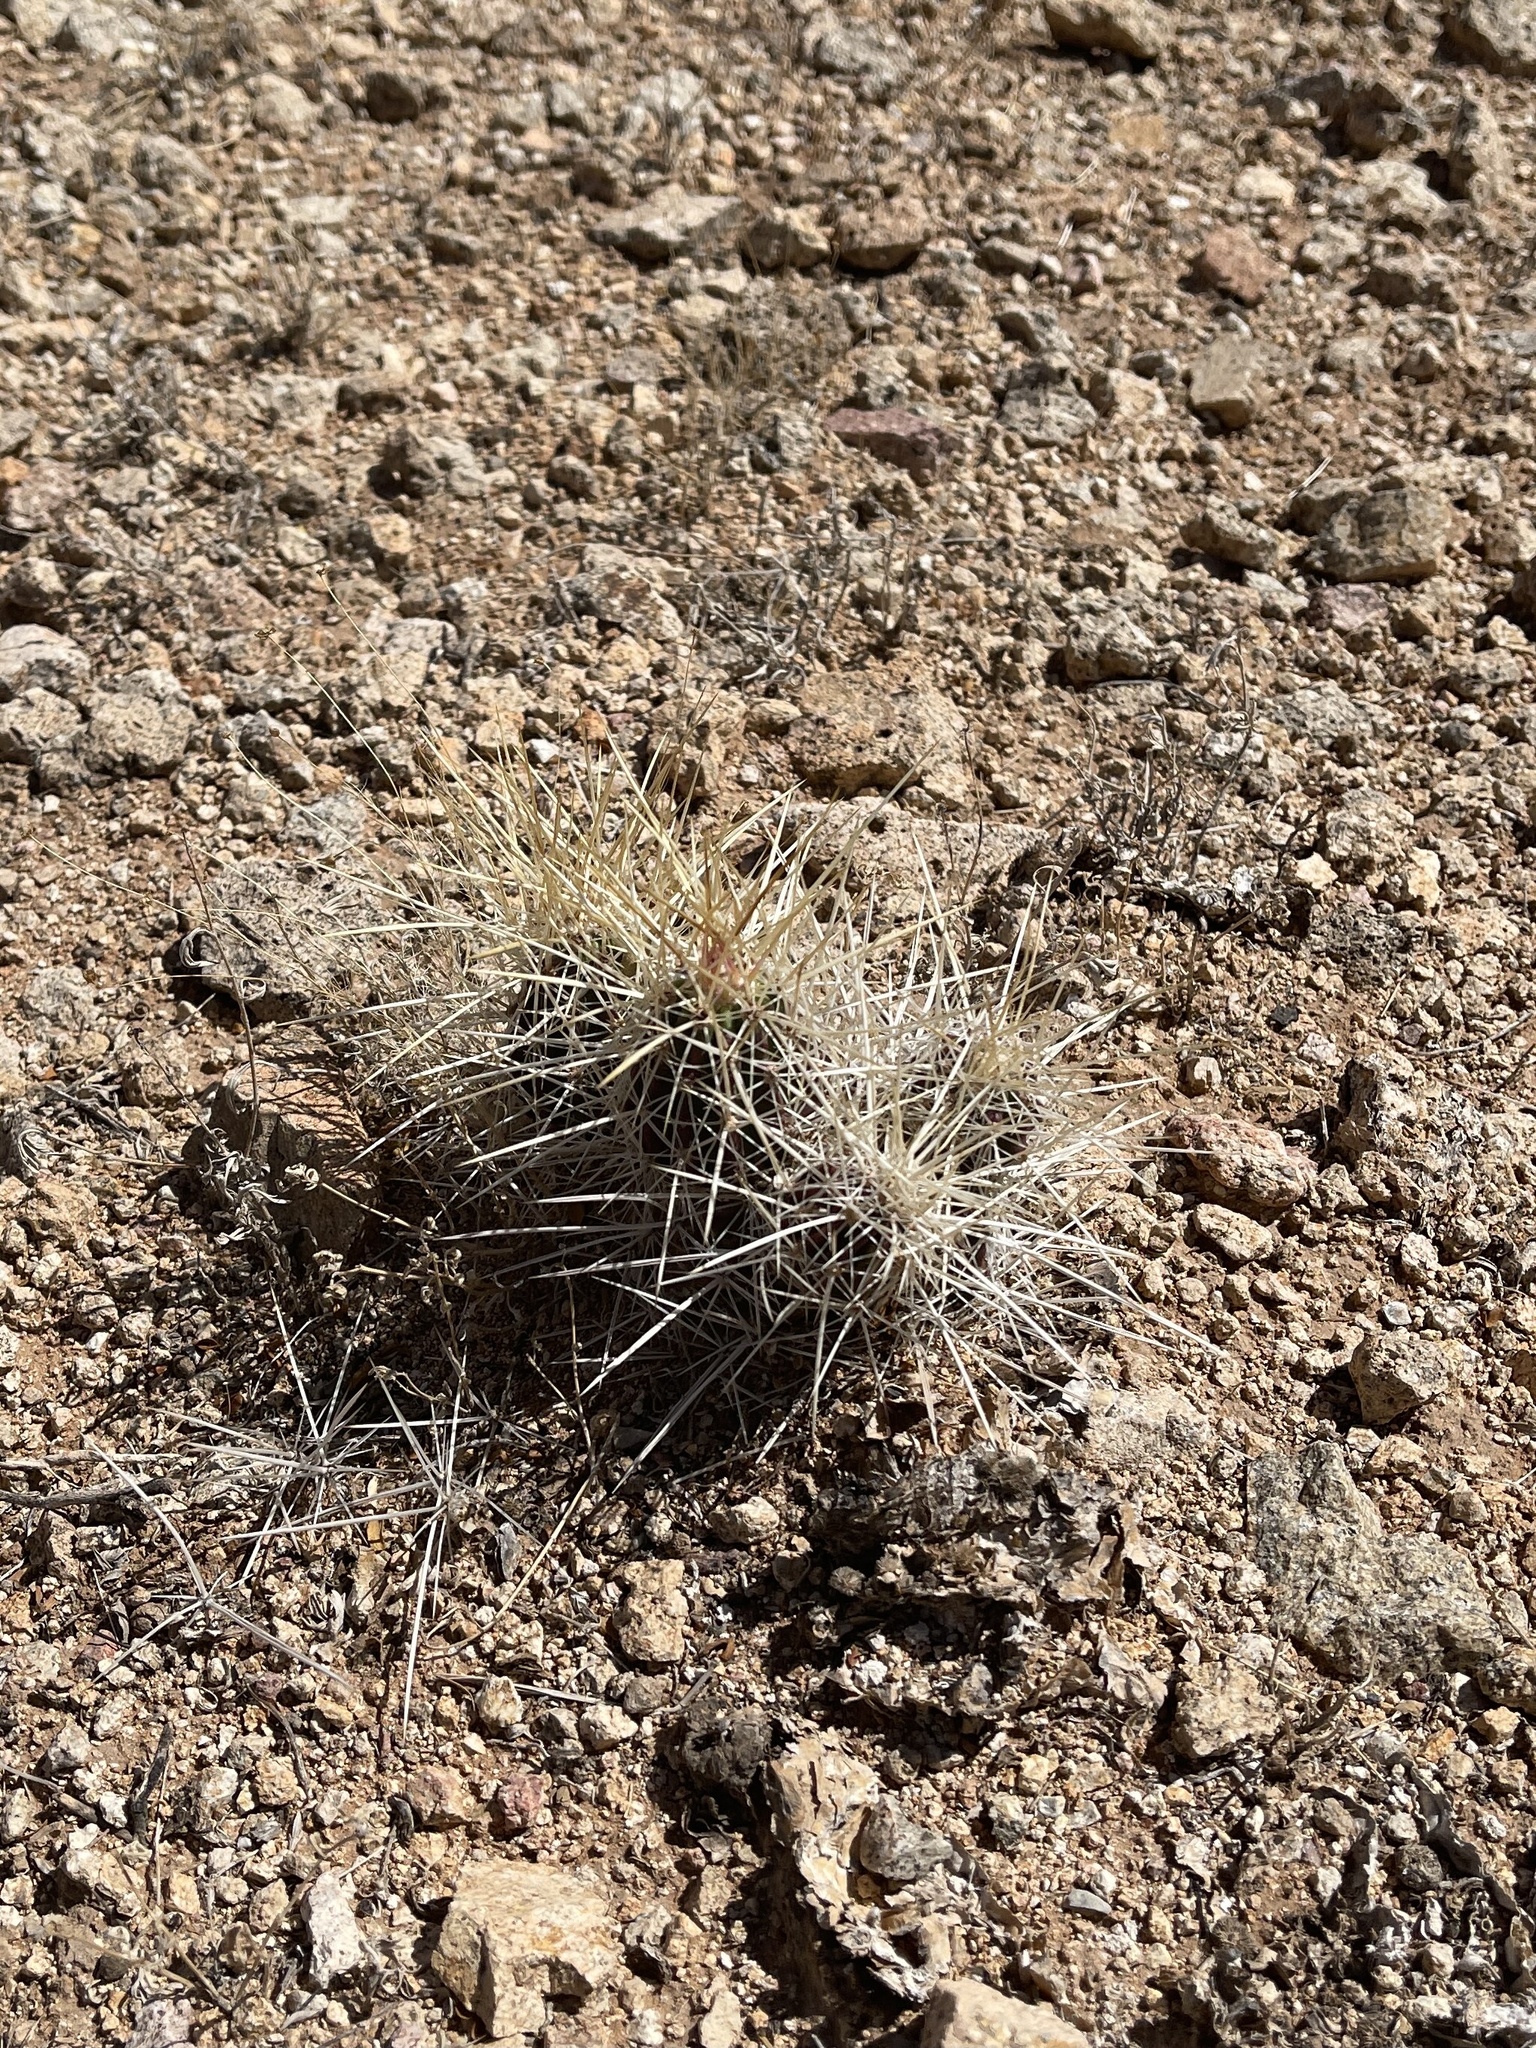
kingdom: Plantae
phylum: Tracheophyta
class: Magnoliopsida
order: Caryophyllales
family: Cactaceae
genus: Echinocereus
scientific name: Echinocereus stramineus
